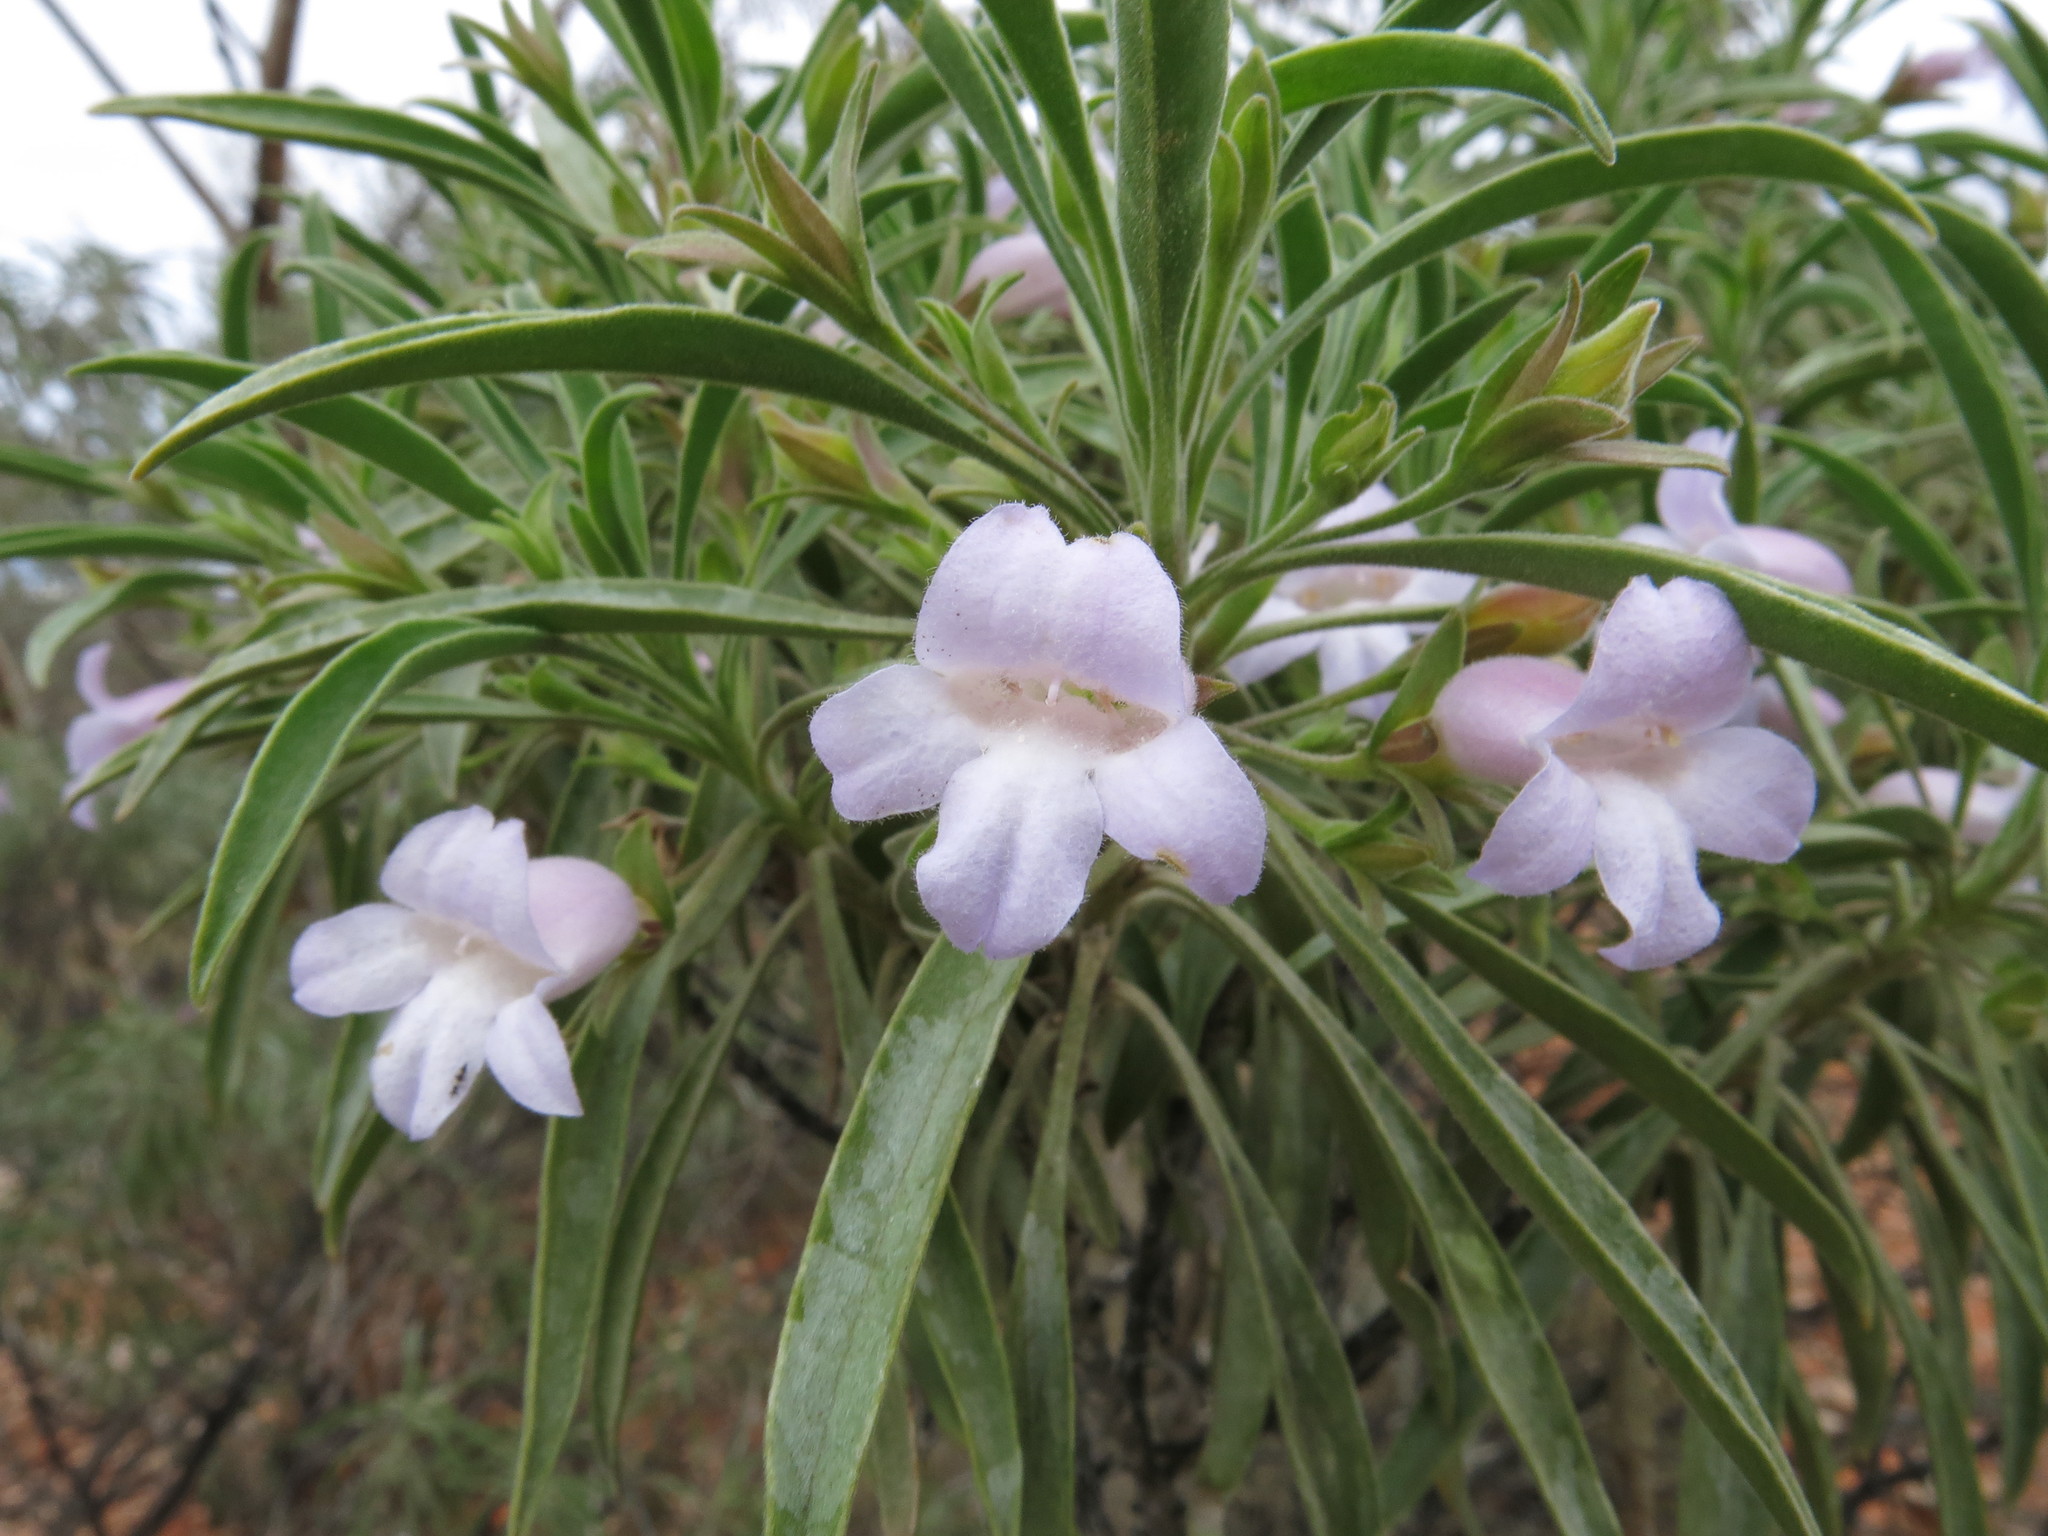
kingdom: Plantae
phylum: Tracheophyta
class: Magnoliopsida
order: Lamiales
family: Scrophulariaceae
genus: Eremophila
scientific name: Eremophila freelingii
